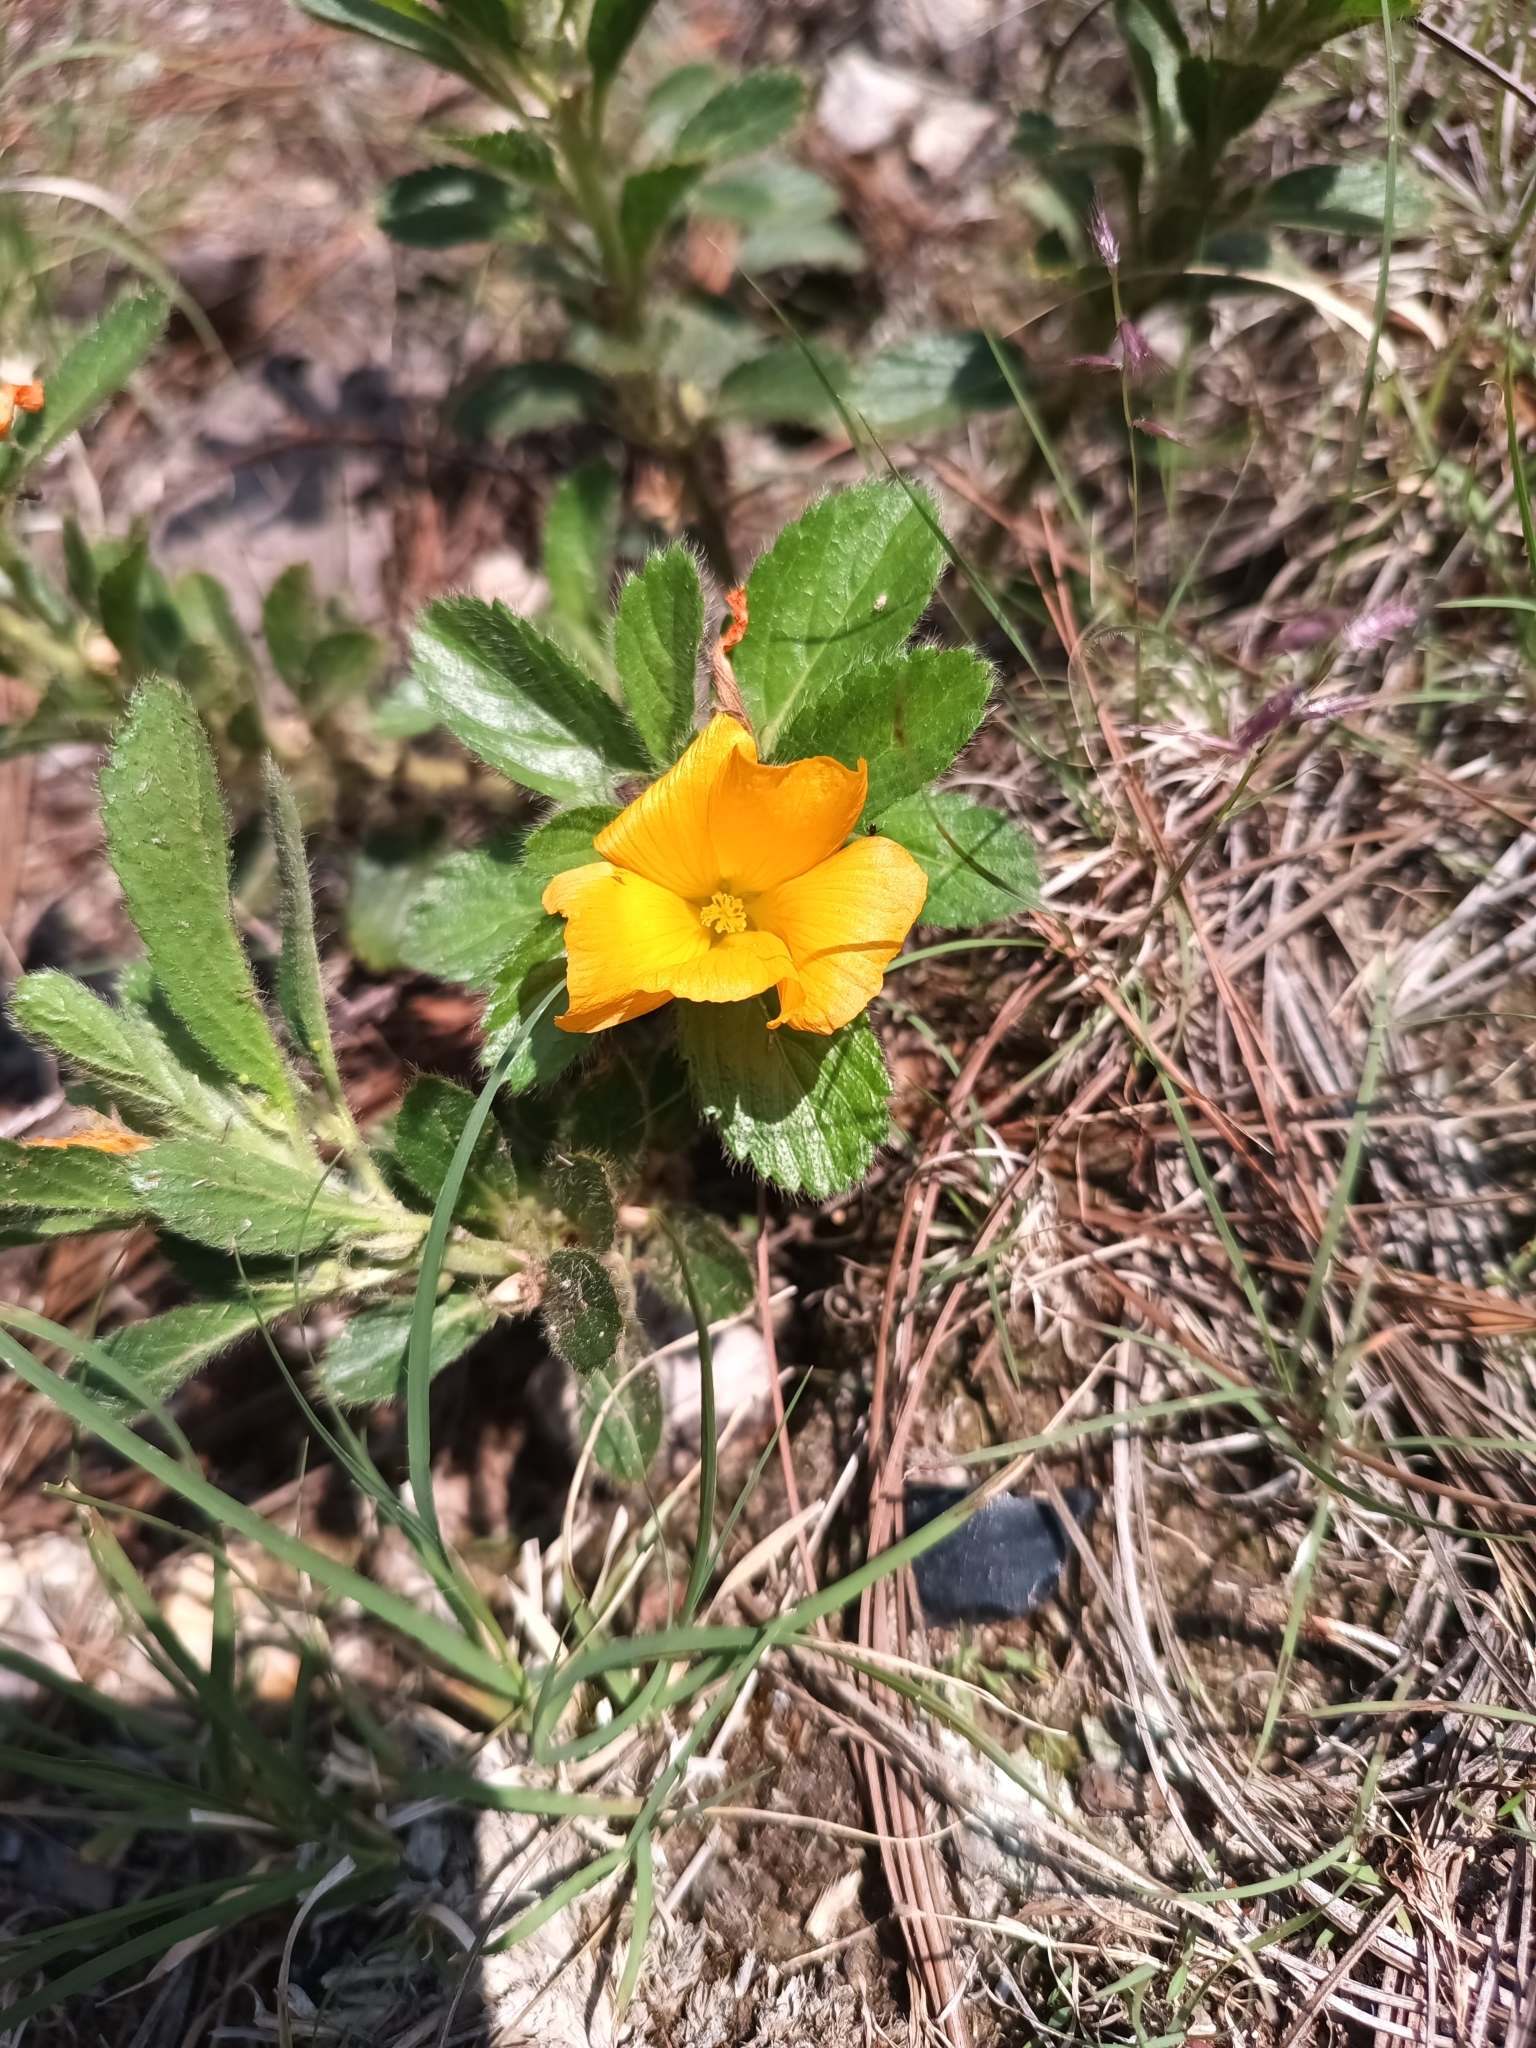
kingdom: Plantae
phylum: Tracheophyta
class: Magnoliopsida
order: Malpighiales
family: Turneraceae
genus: Turnera
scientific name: Turnera callosa
